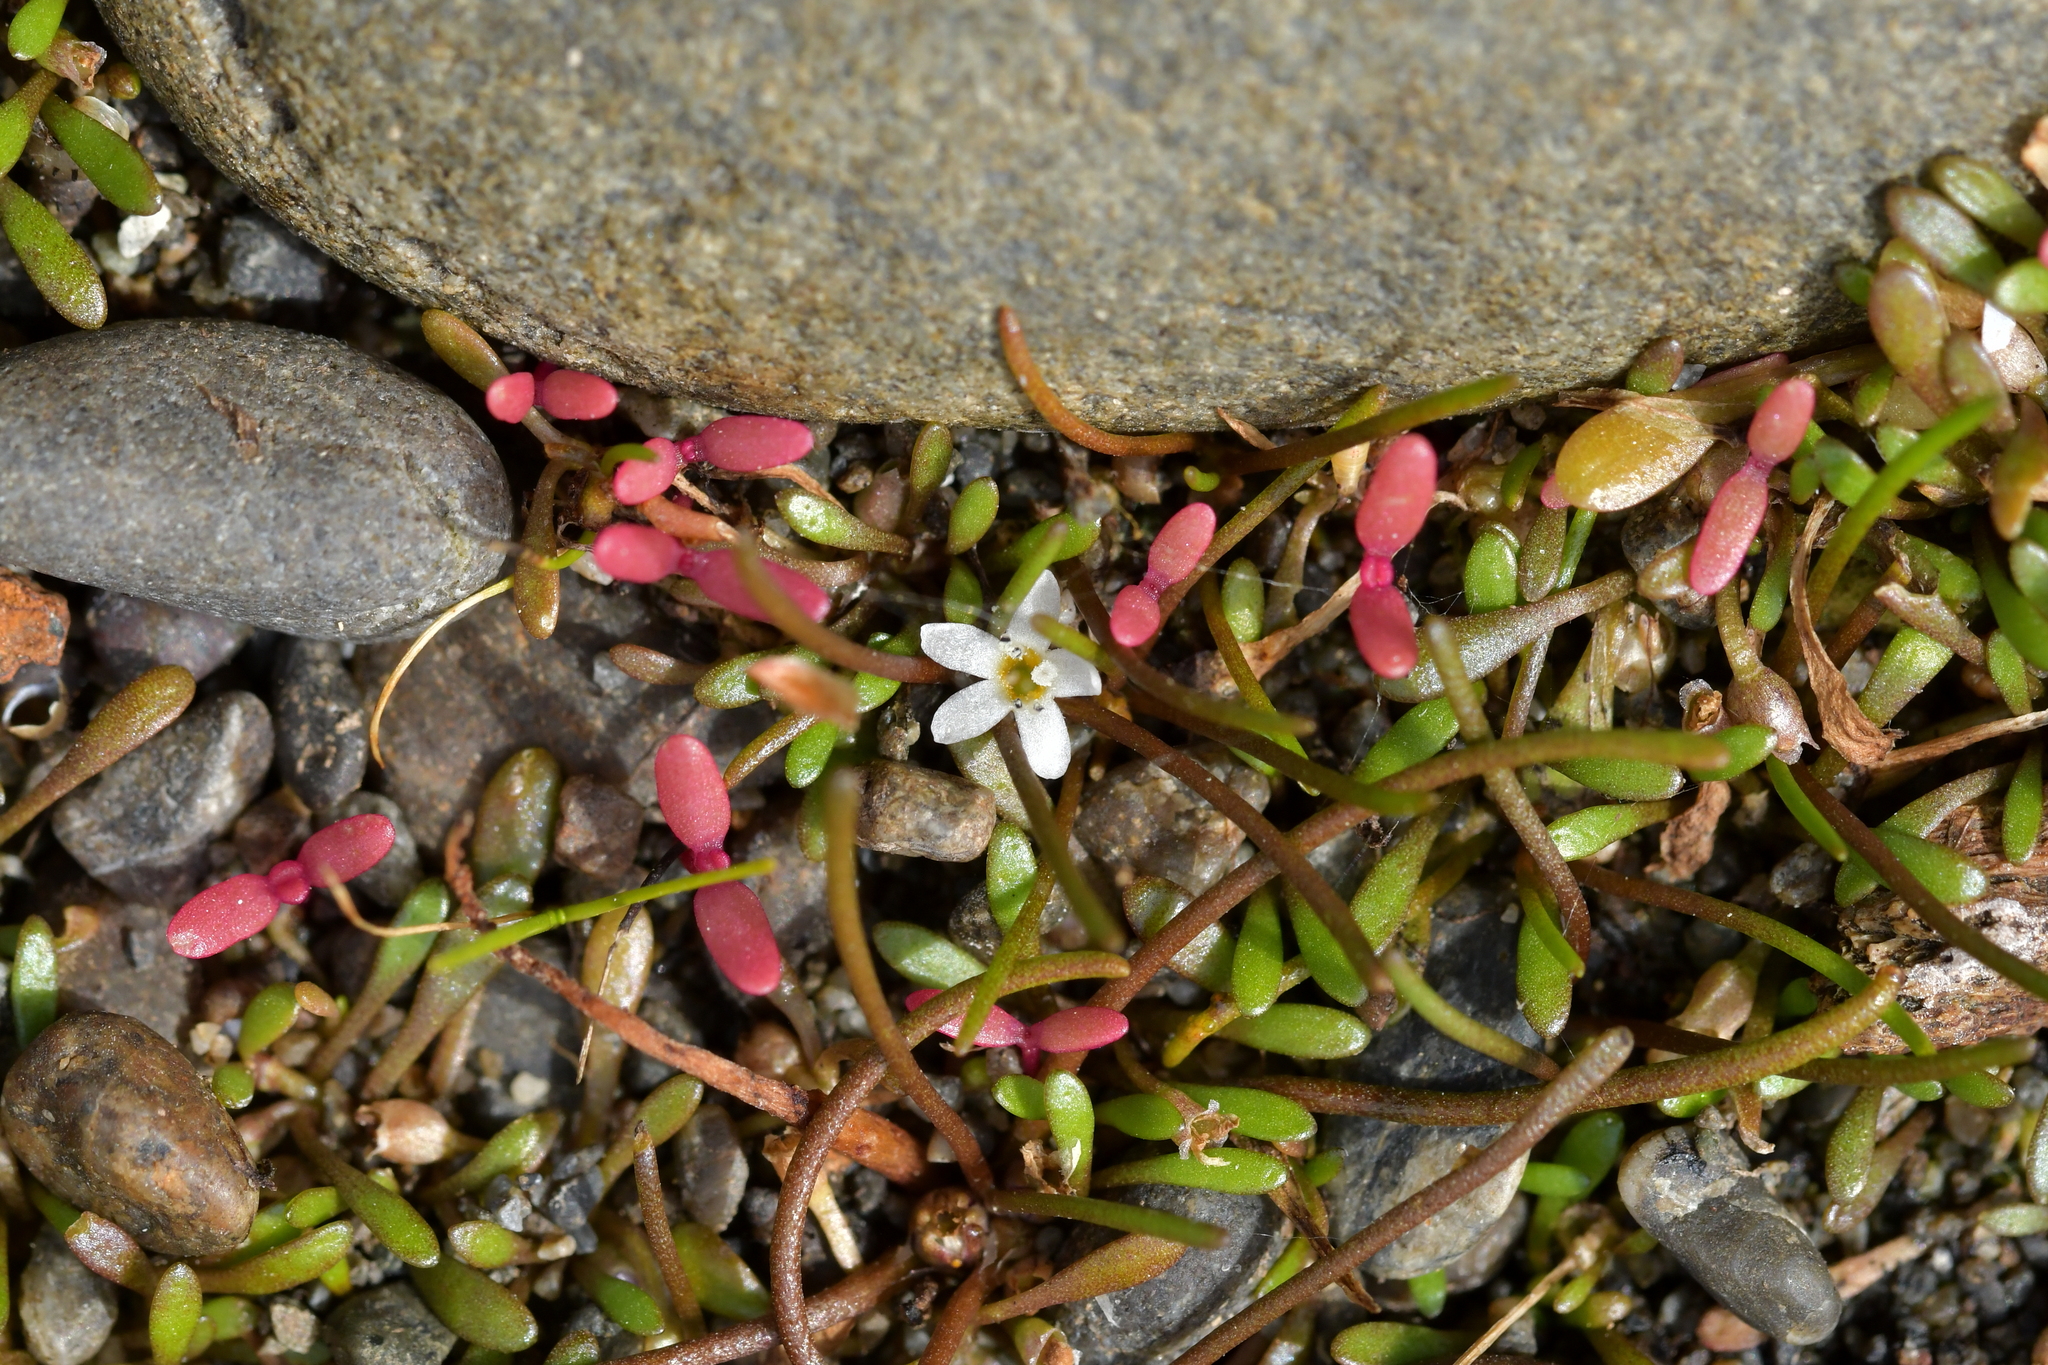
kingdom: Plantae
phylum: Tracheophyta
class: Magnoliopsida
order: Lamiales
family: Scrophulariaceae
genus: Limosella
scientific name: Limosella australis
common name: Welsh mudwort
